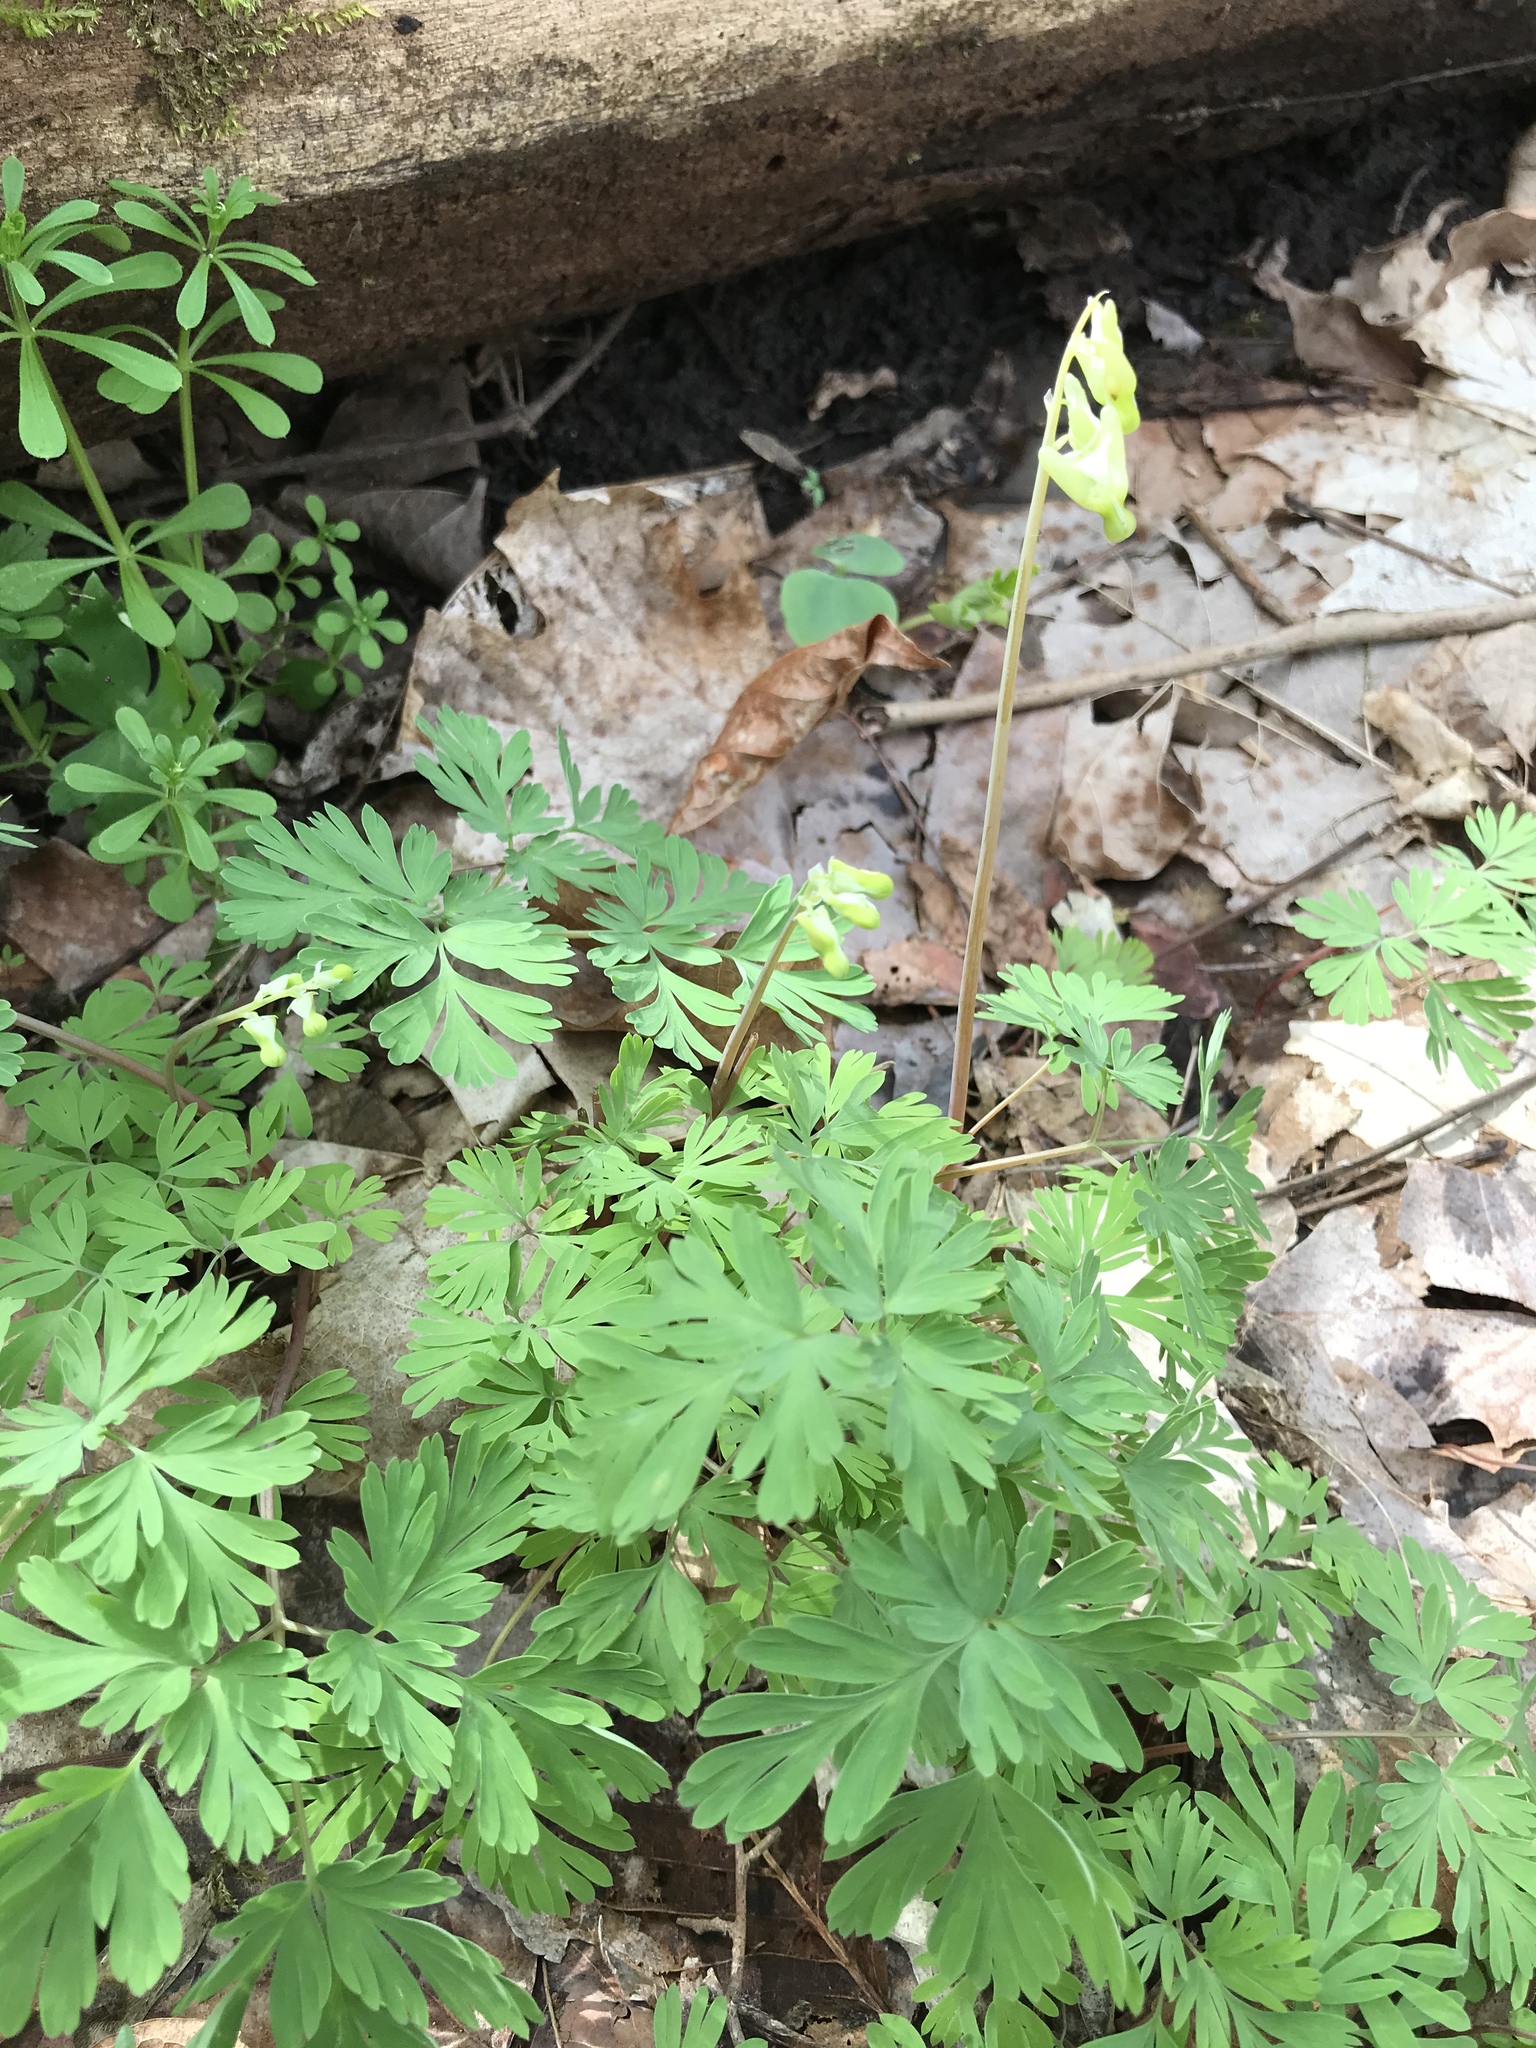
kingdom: Plantae
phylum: Tracheophyta
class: Magnoliopsida
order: Ranunculales
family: Papaveraceae
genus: Dicentra
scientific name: Dicentra cucullaria
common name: Dutchman's breeches
